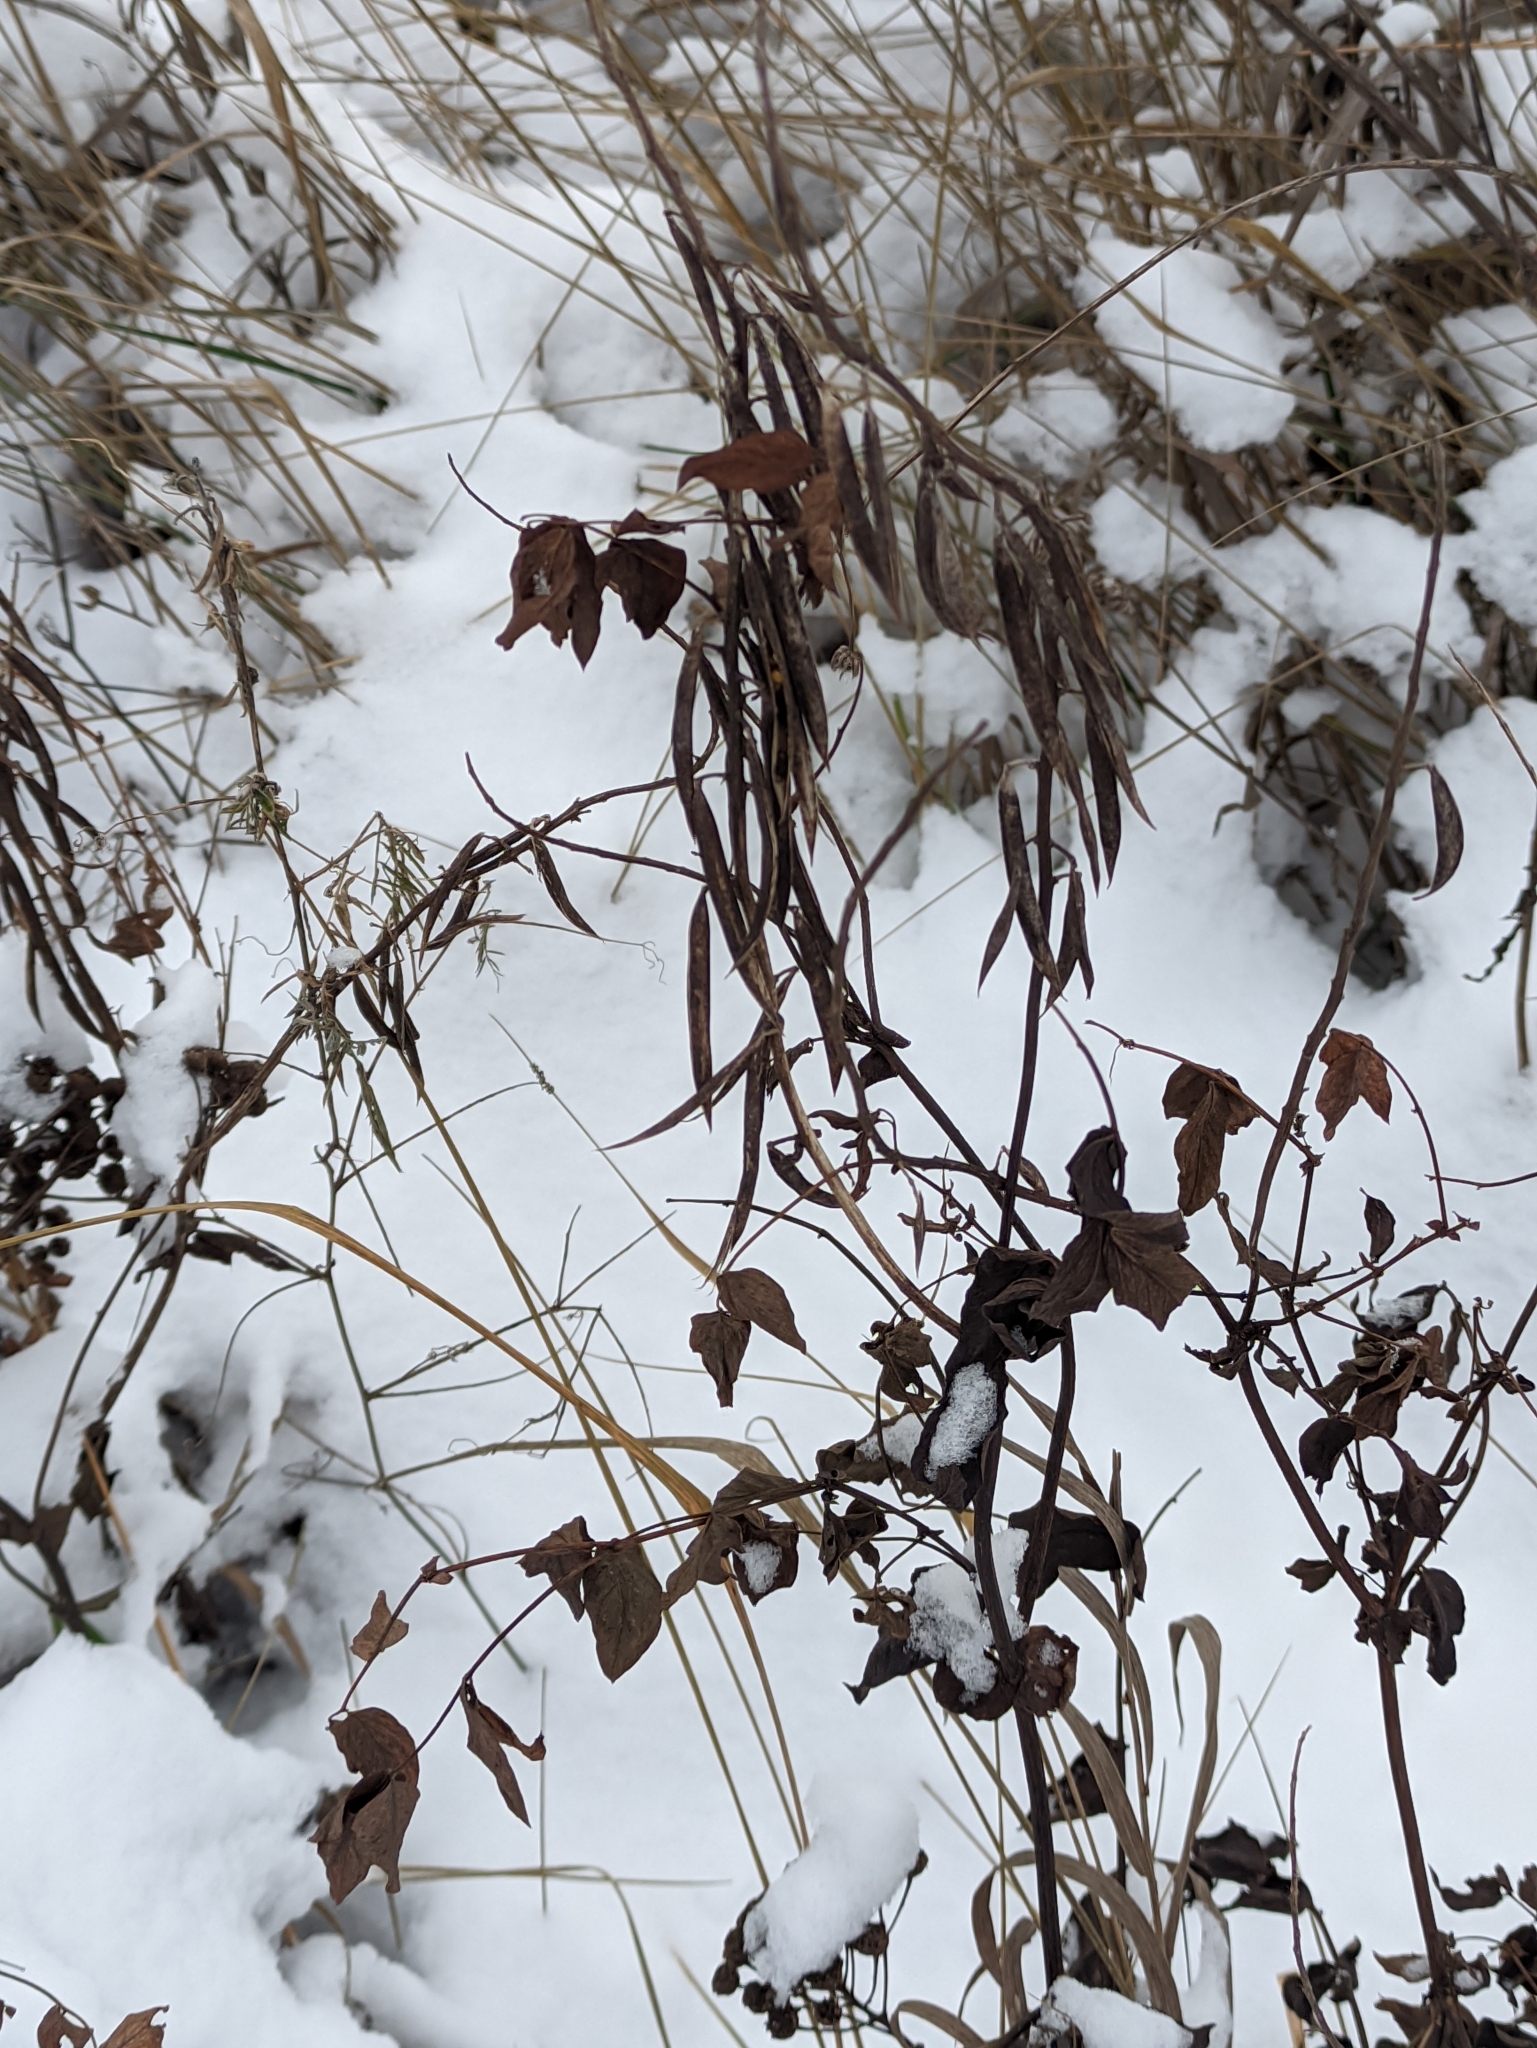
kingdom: Plantae
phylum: Tracheophyta
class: Magnoliopsida
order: Fabales
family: Fabaceae
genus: Galega
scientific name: Galega orientalis
